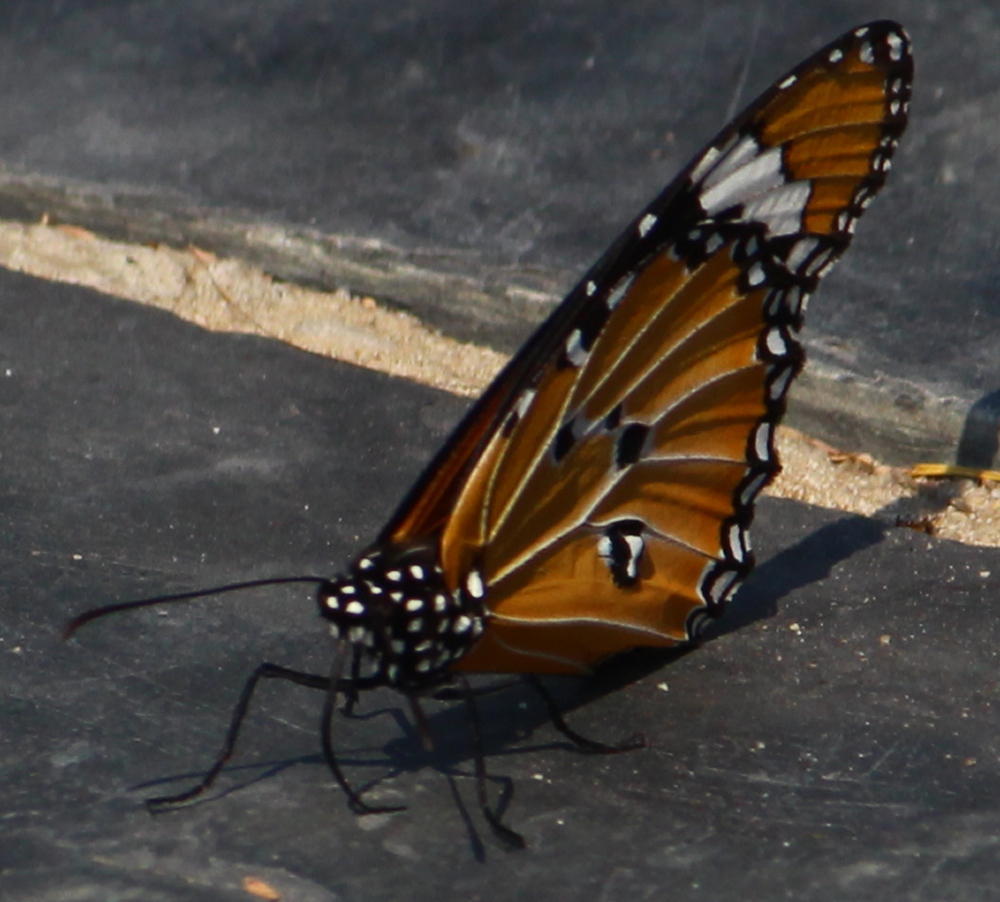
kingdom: Animalia
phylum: Arthropoda
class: Insecta
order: Lepidoptera
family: Nymphalidae
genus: Danaus
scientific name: Danaus chrysippus
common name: Plain tiger
